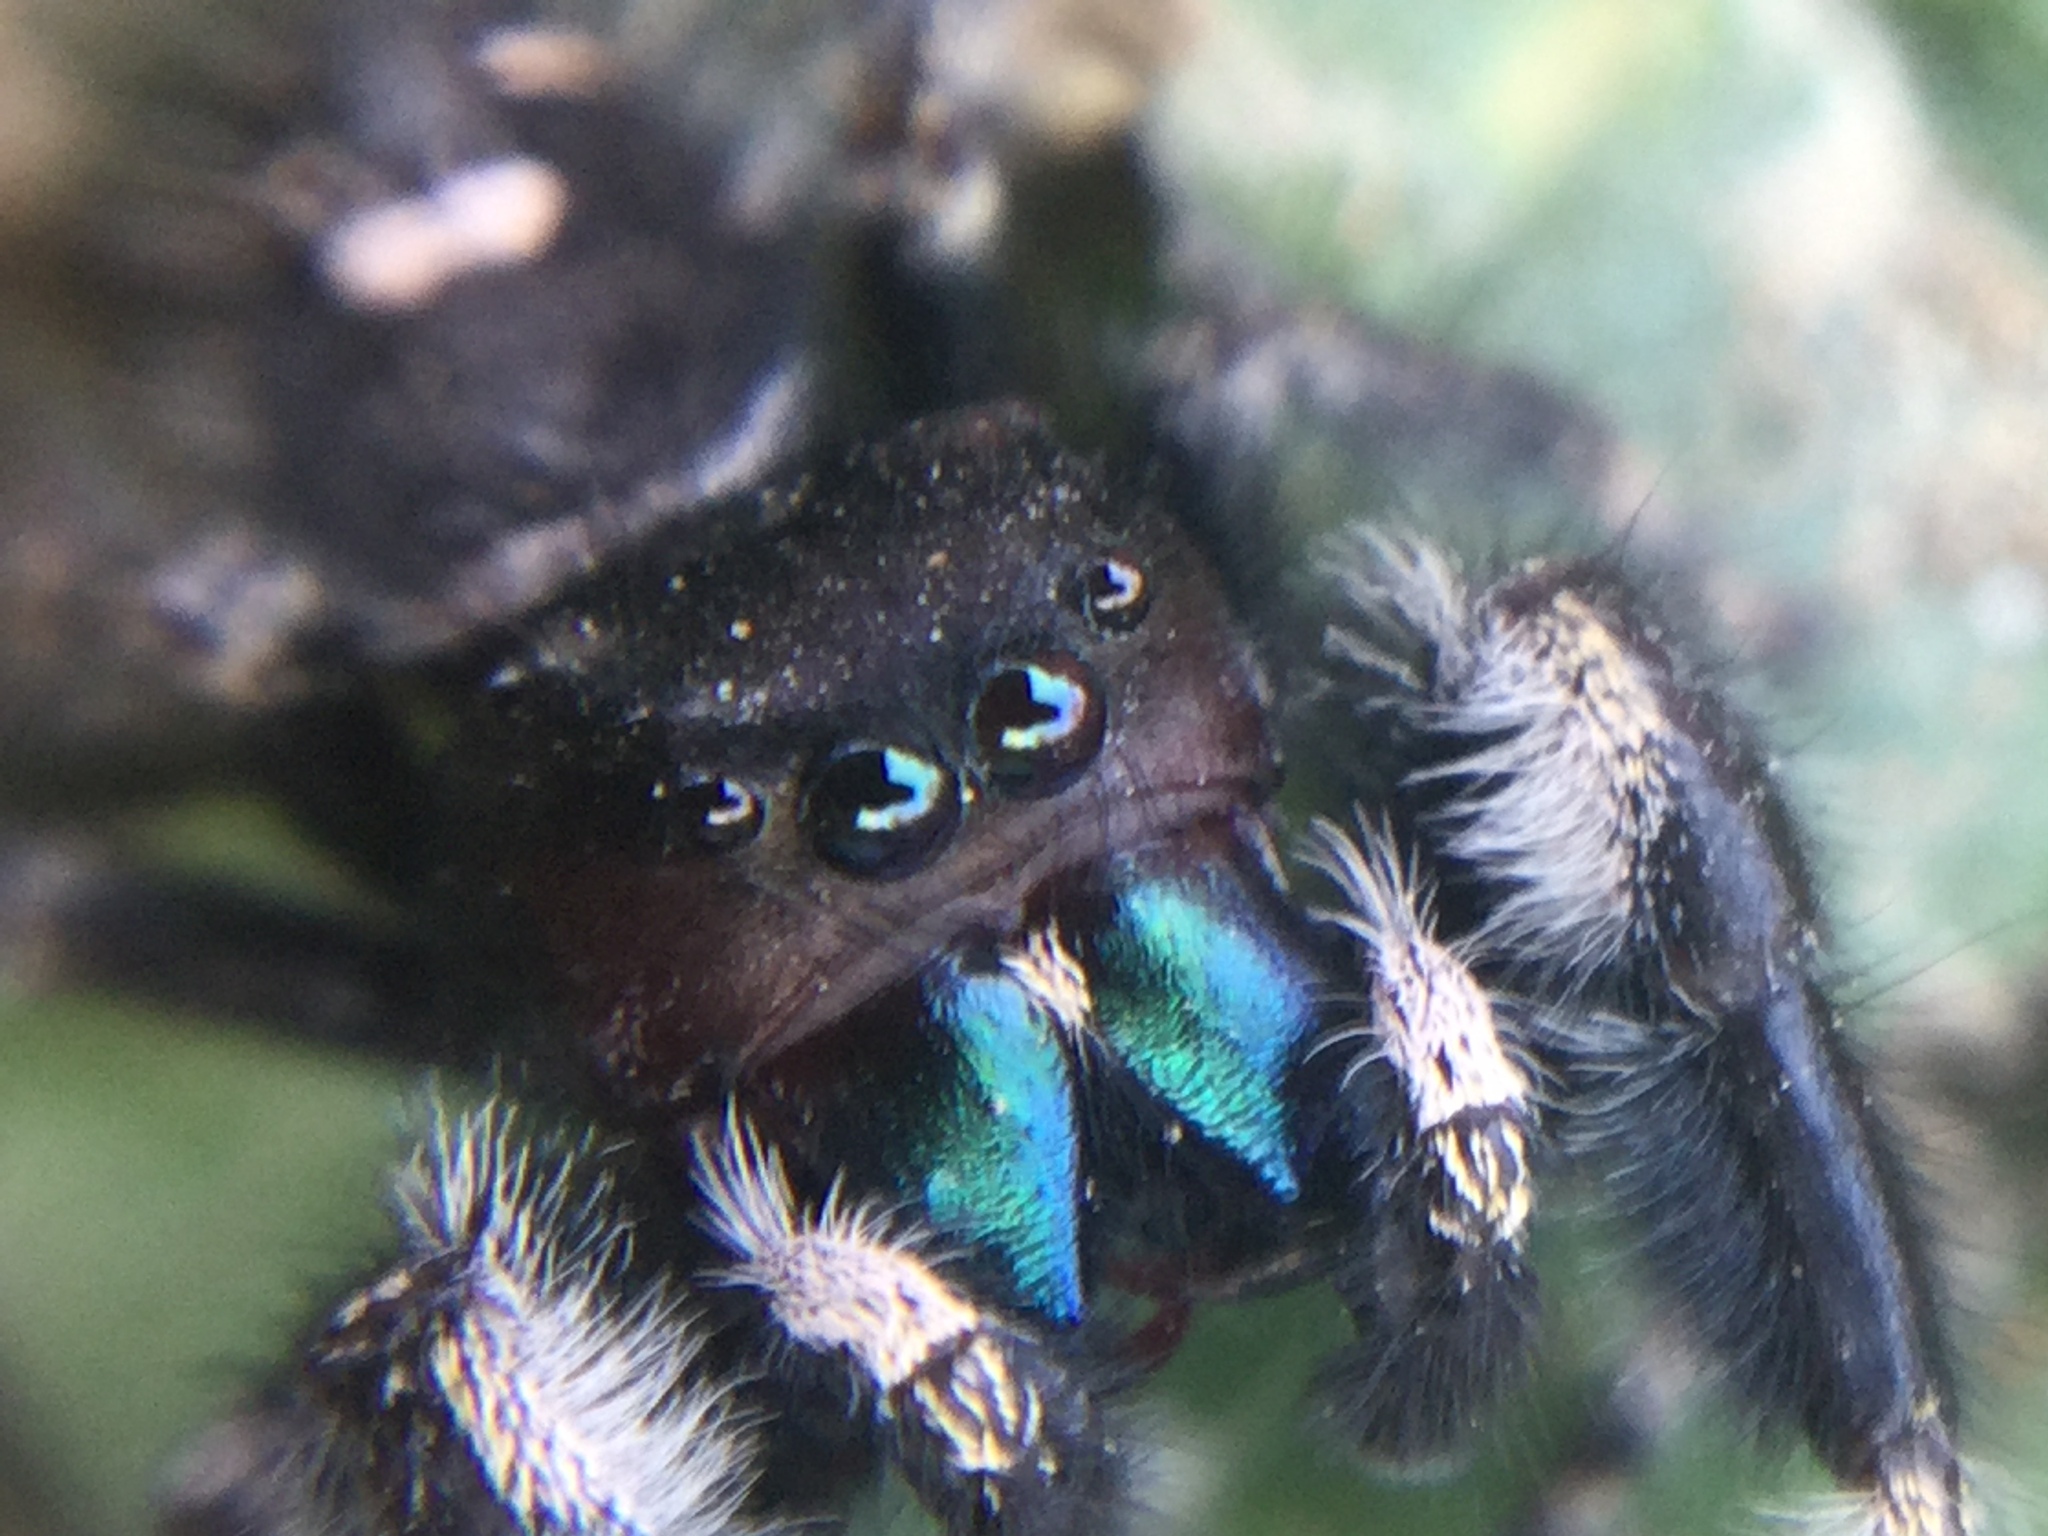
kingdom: Animalia
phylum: Arthropoda
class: Arachnida
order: Araneae
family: Salticidae
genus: Phidippus
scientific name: Phidippus audax
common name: Bold jumper
